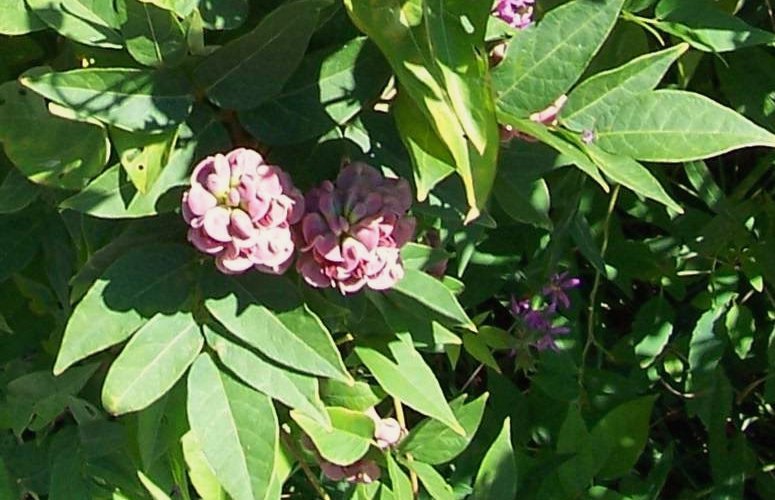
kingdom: Plantae
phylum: Tracheophyta
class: Magnoliopsida
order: Fabales
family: Fabaceae
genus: Apios
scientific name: Apios americana
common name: American potato-bean
